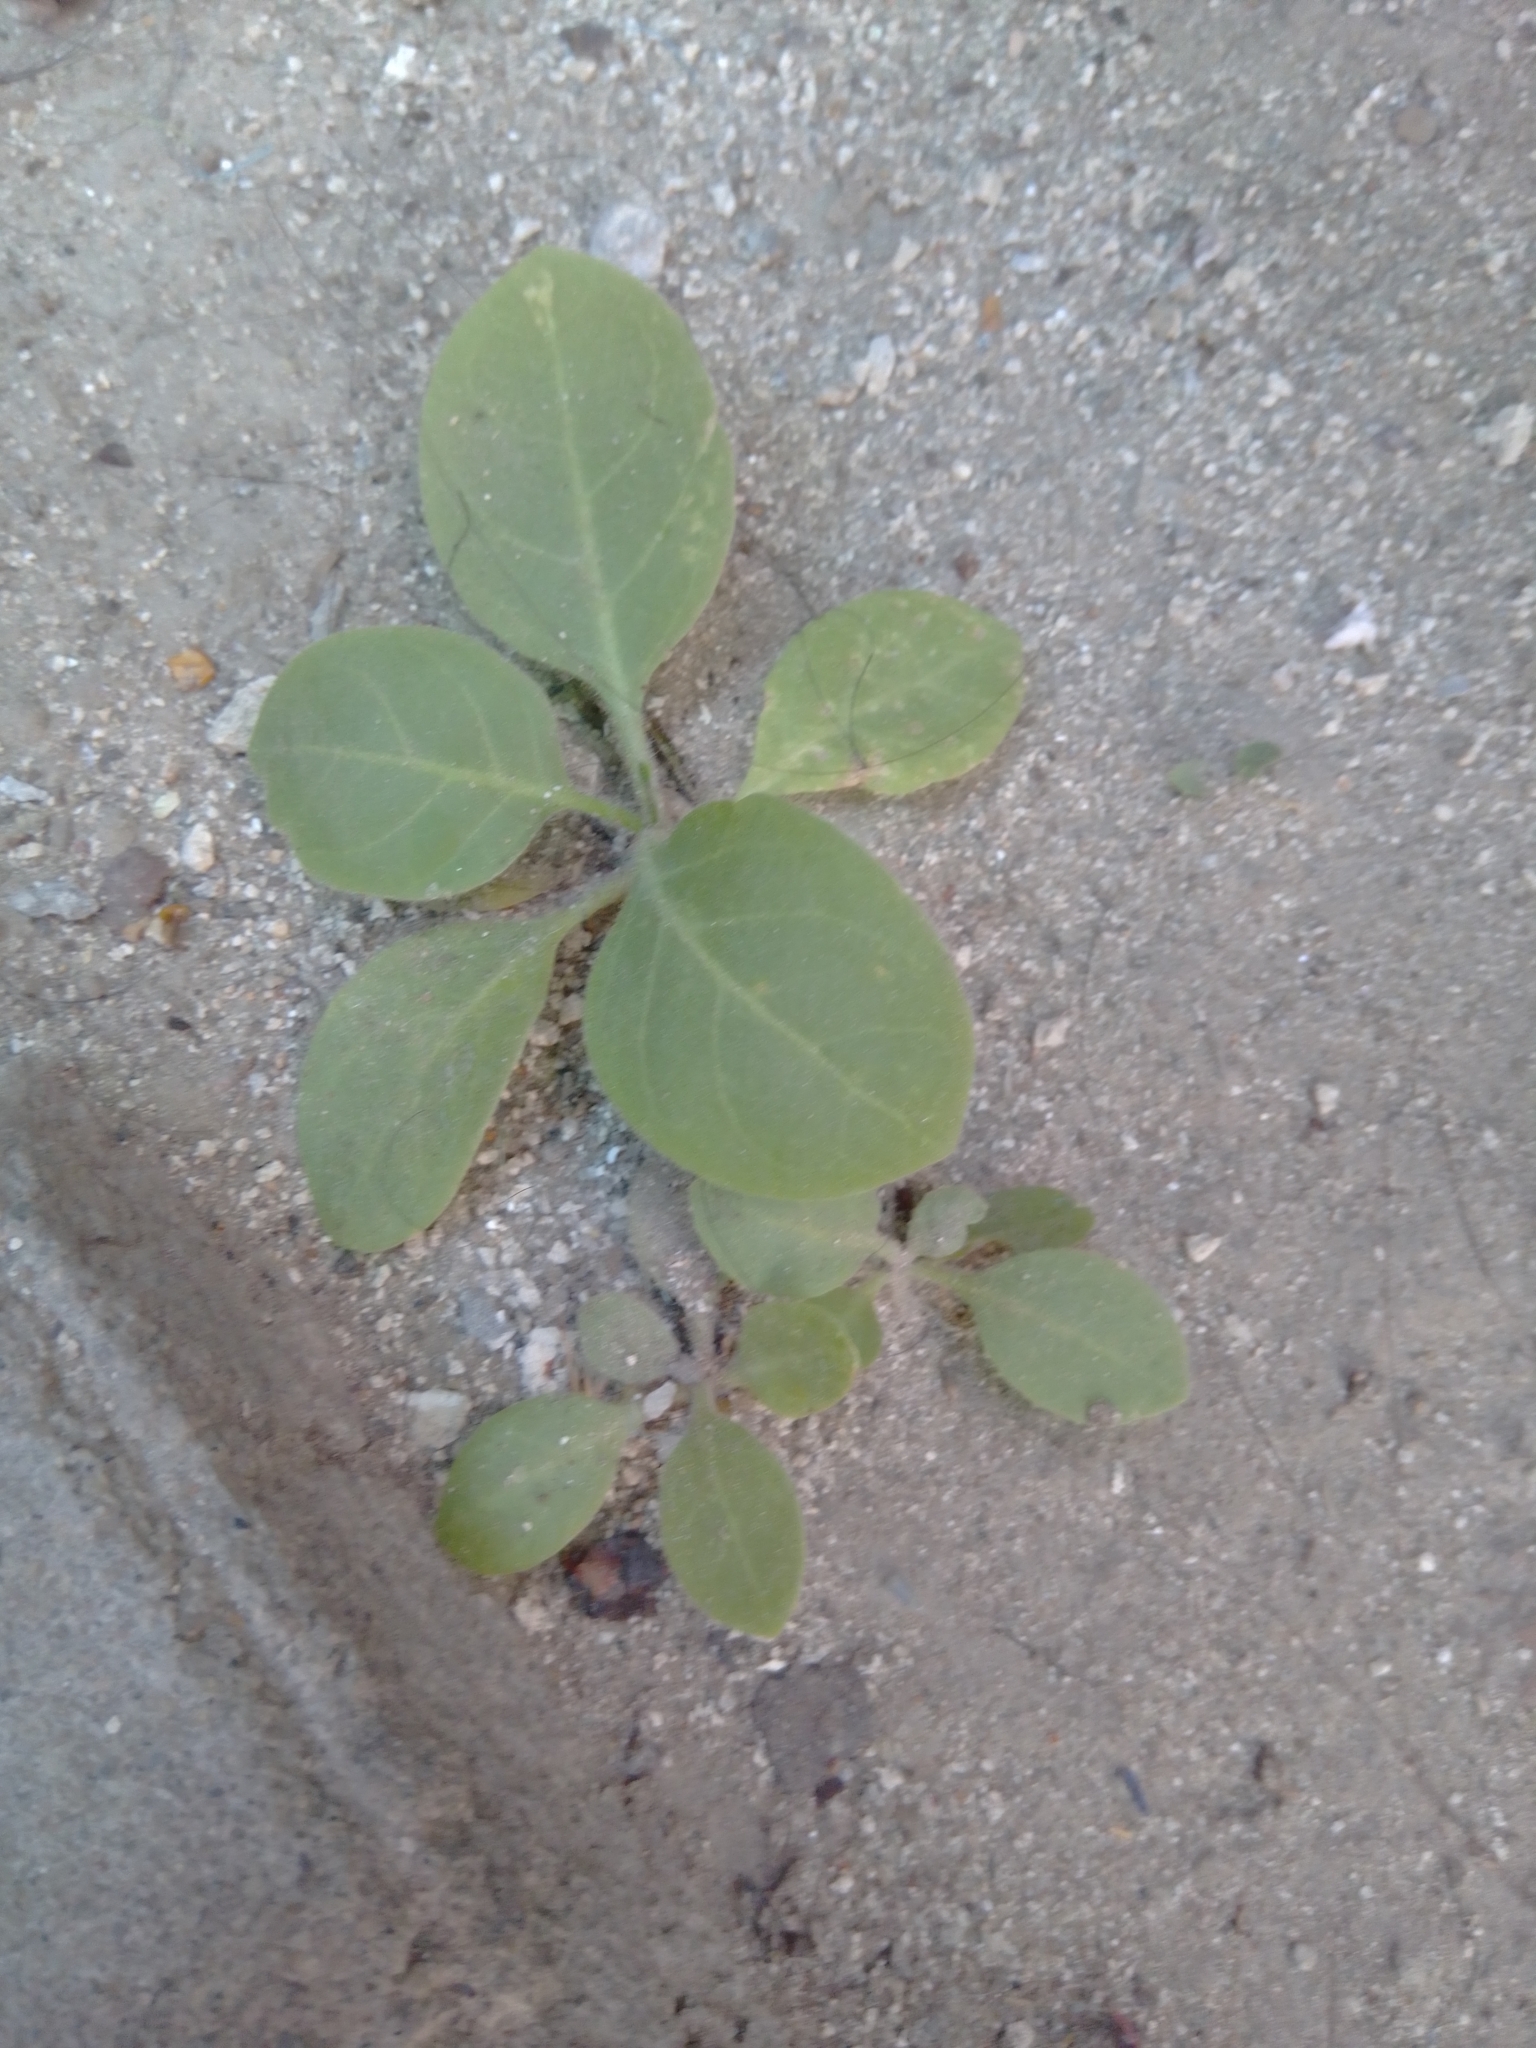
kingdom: Plantae
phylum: Tracheophyta
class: Magnoliopsida
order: Solanales
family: Solanaceae
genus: Nicotiana
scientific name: Nicotiana glauca
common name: Tree tobacco
